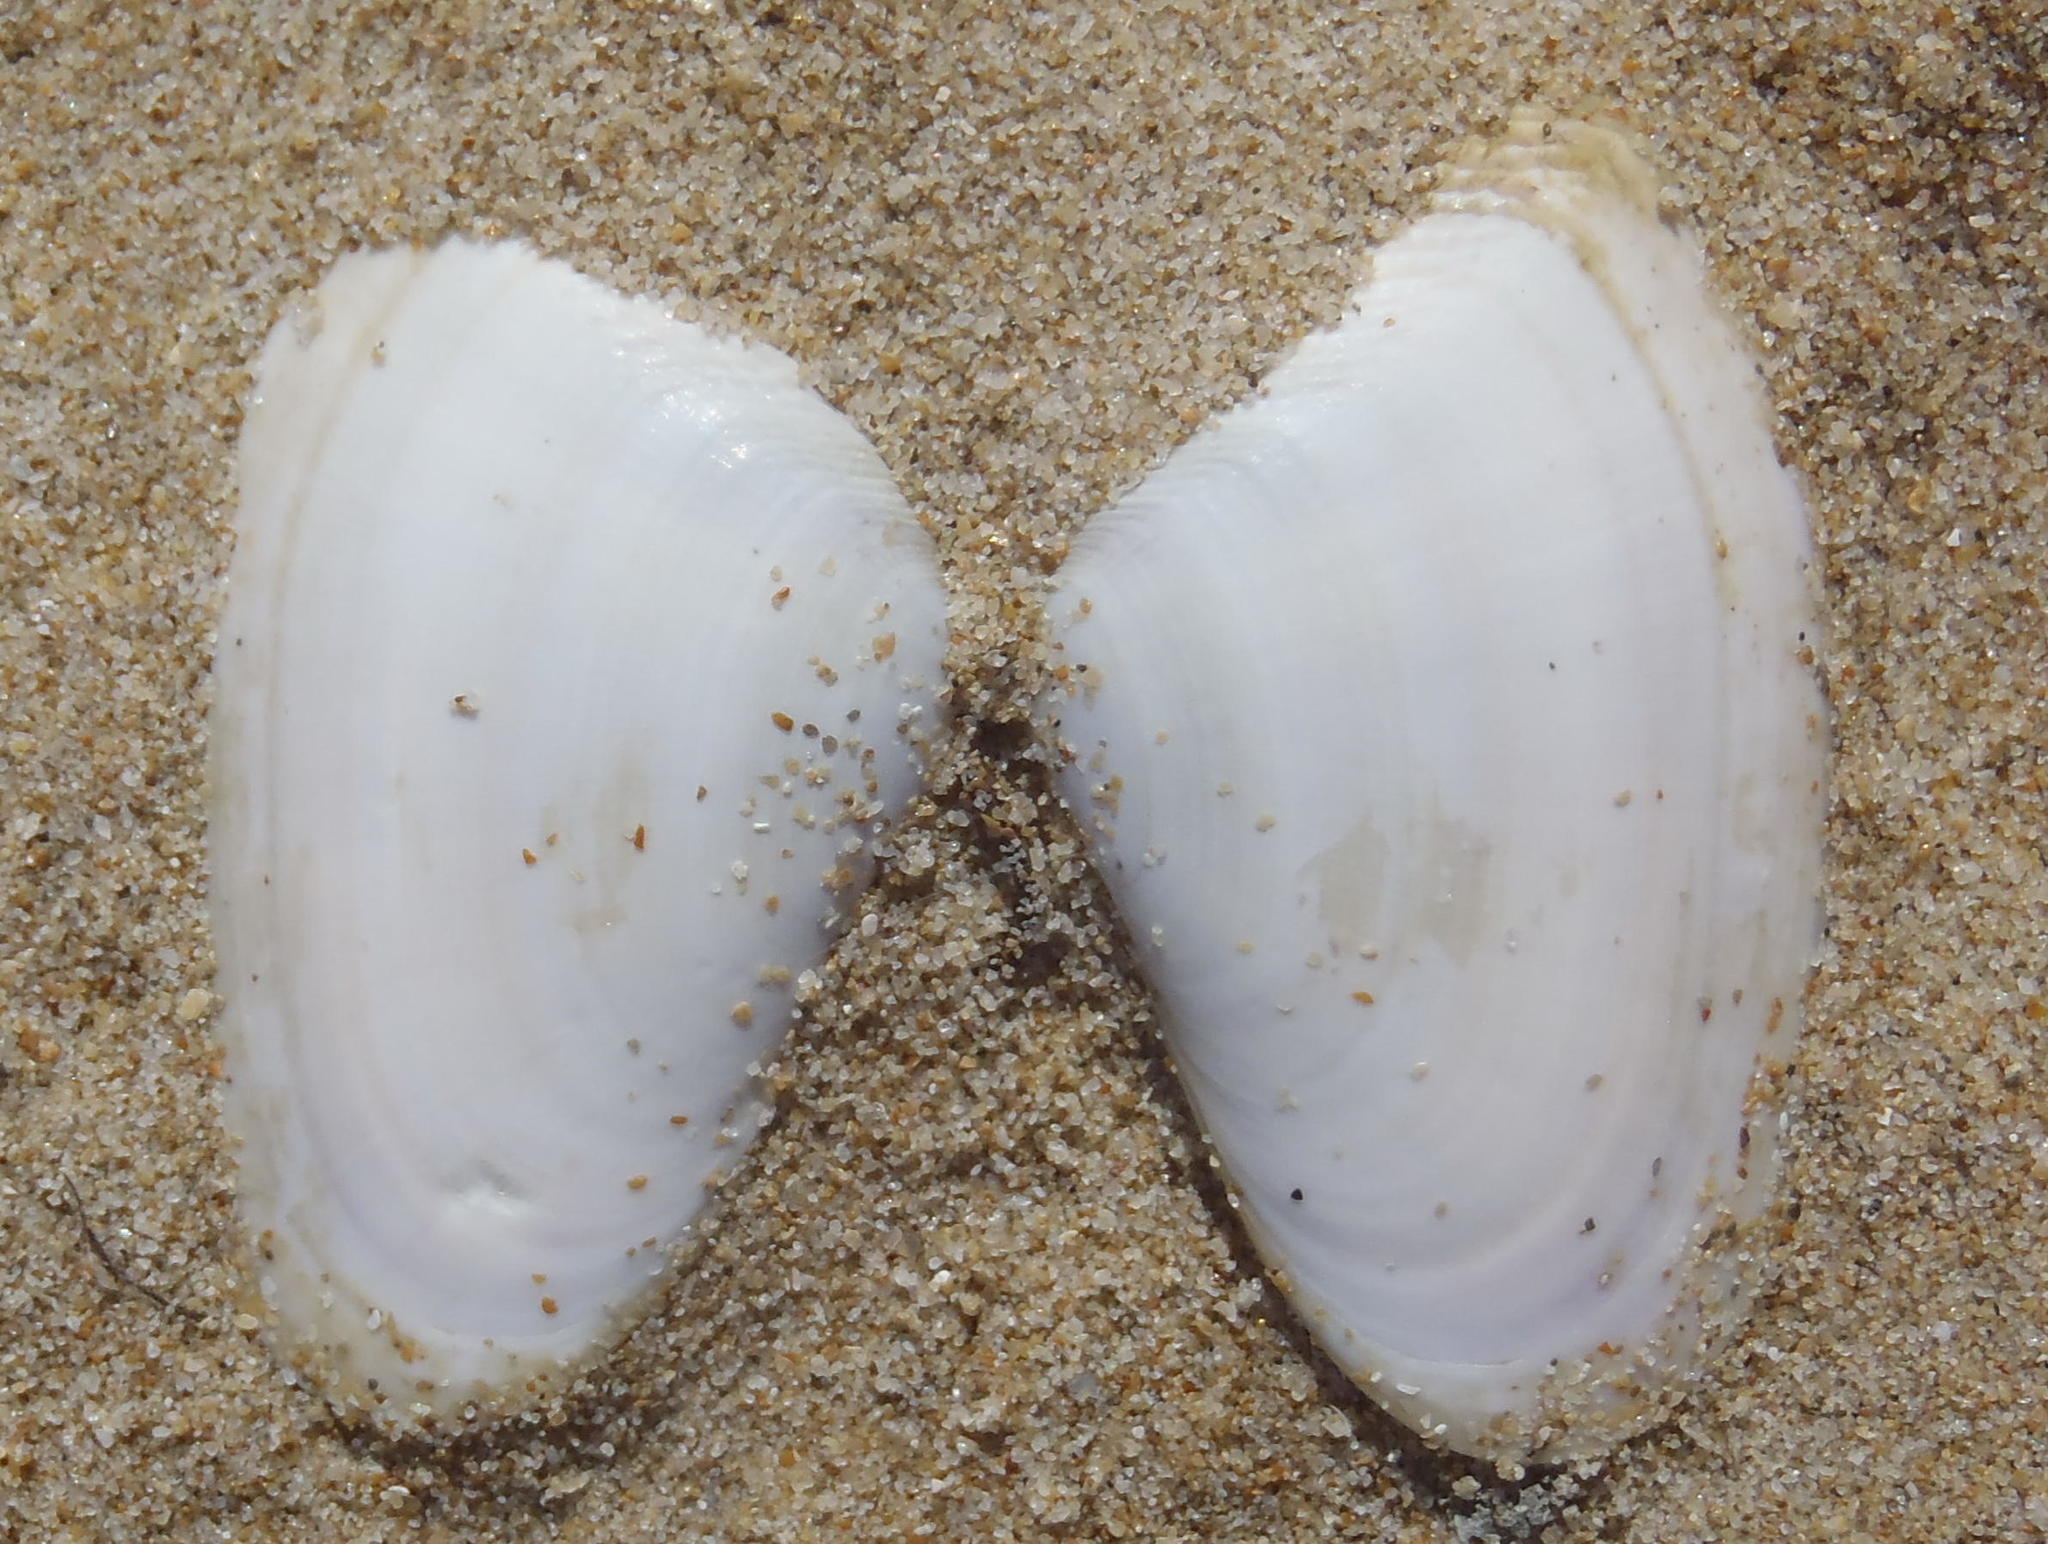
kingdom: Animalia
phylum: Mollusca
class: Bivalvia
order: Cardiida
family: Donacidae
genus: Donax
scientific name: Donax serra
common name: Giant south african wedge clam
